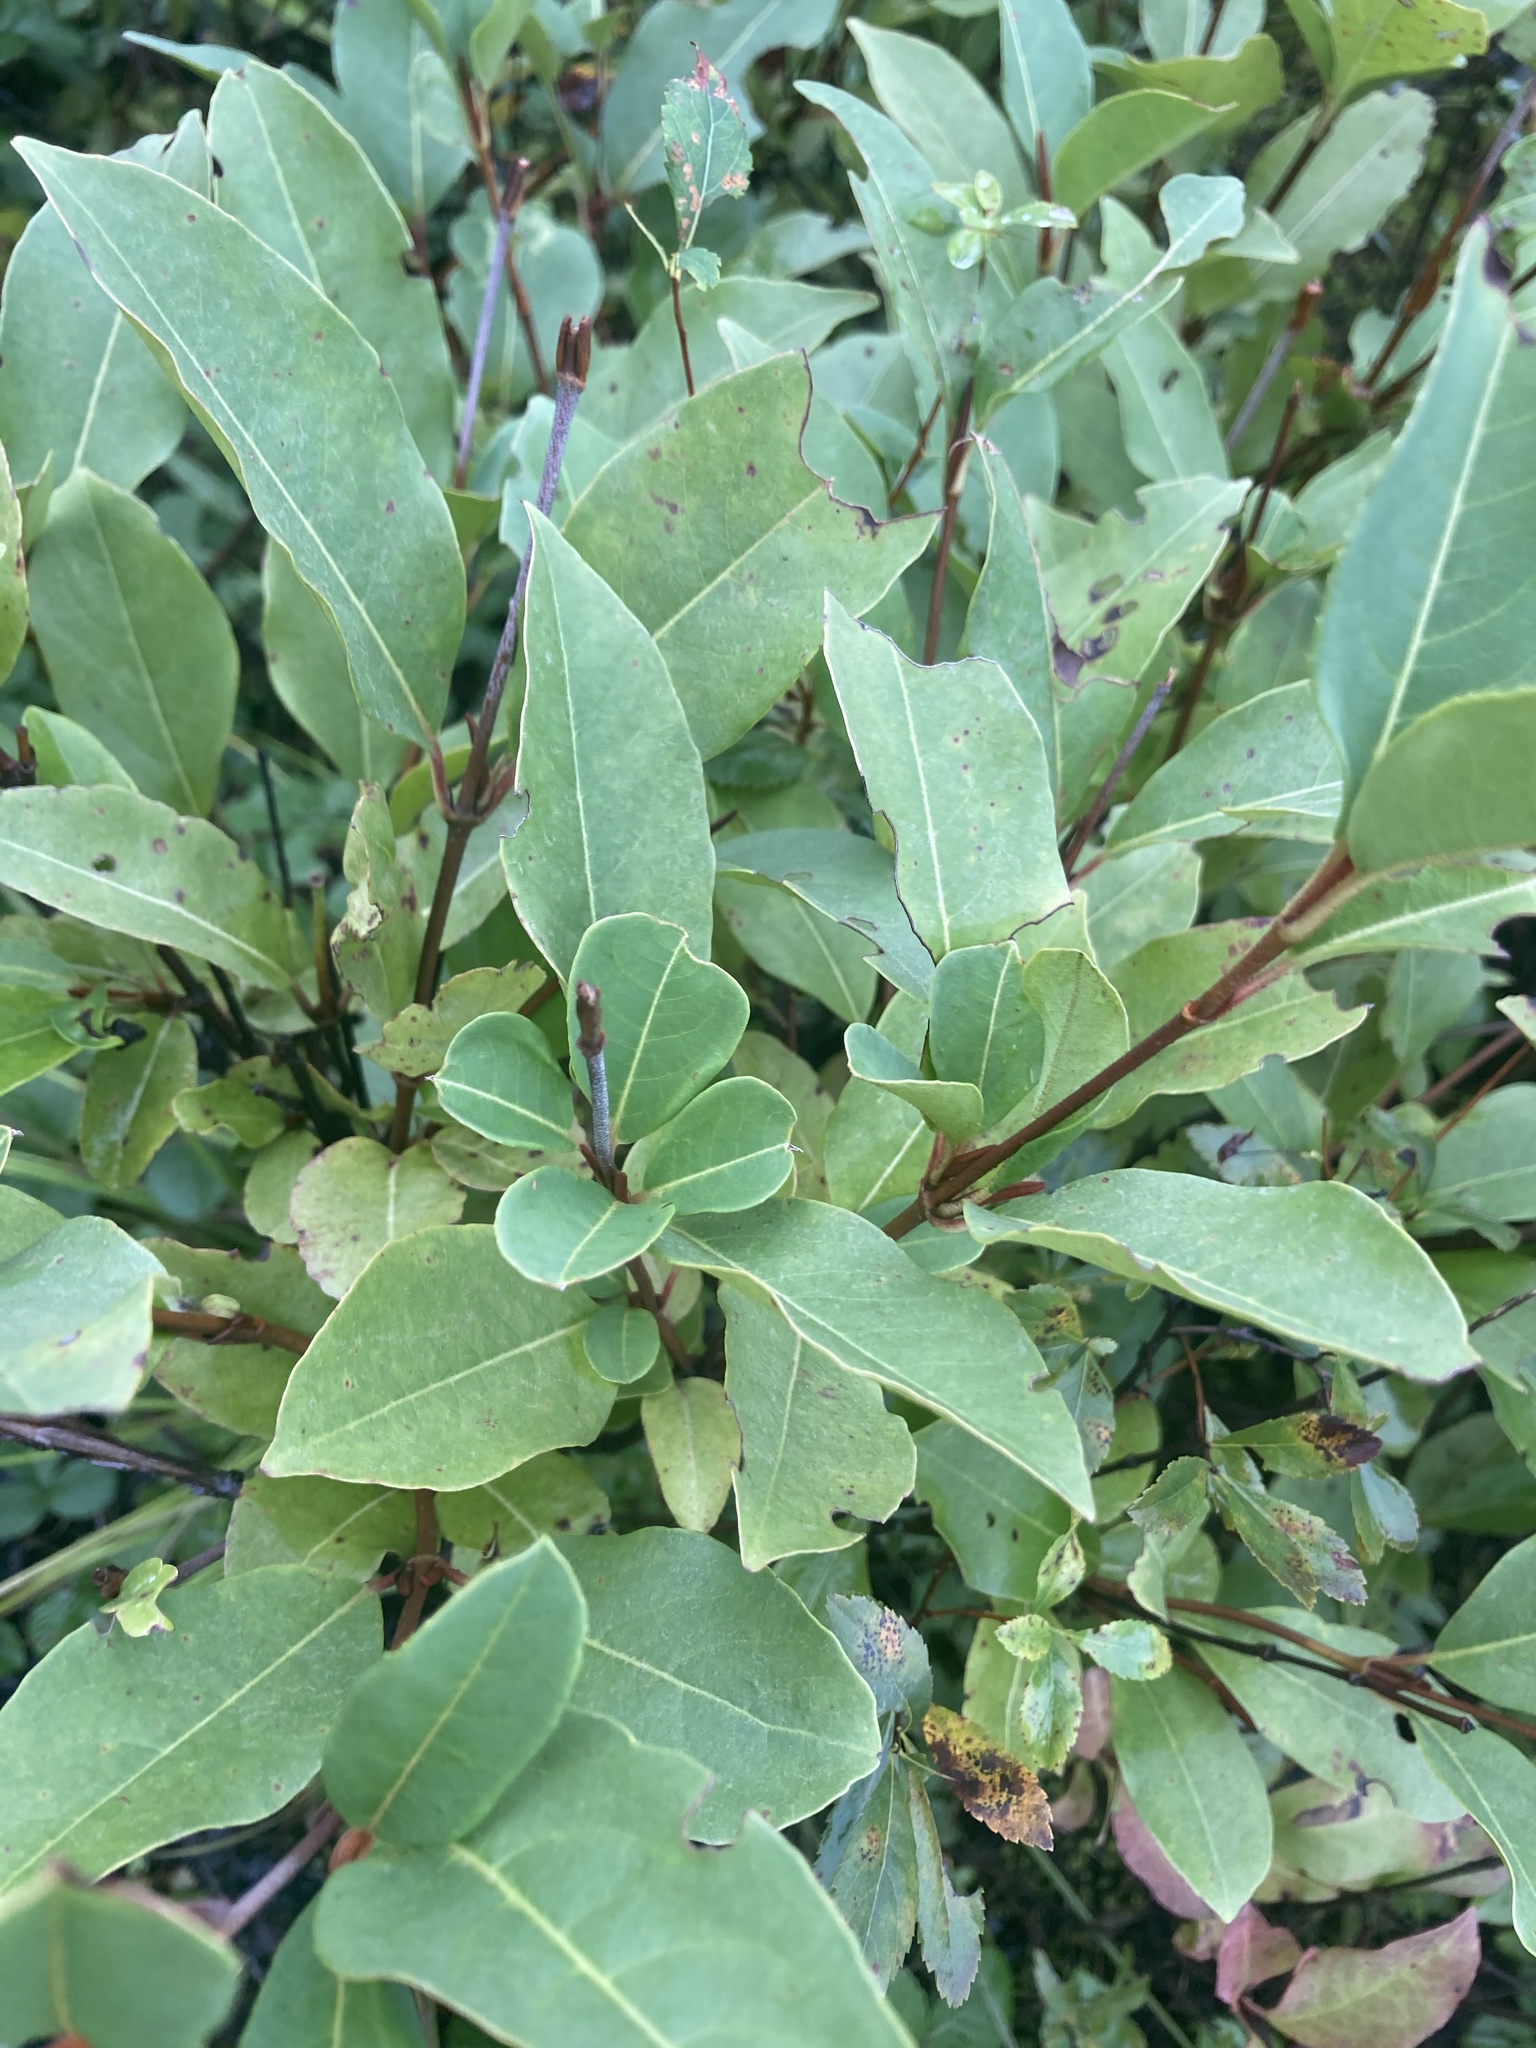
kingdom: Plantae
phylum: Tracheophyta
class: Magnoliopsida
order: Dipsacales
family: Viburnaceae
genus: Viburnum
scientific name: Viburnum cassinoides
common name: Swamp haw
